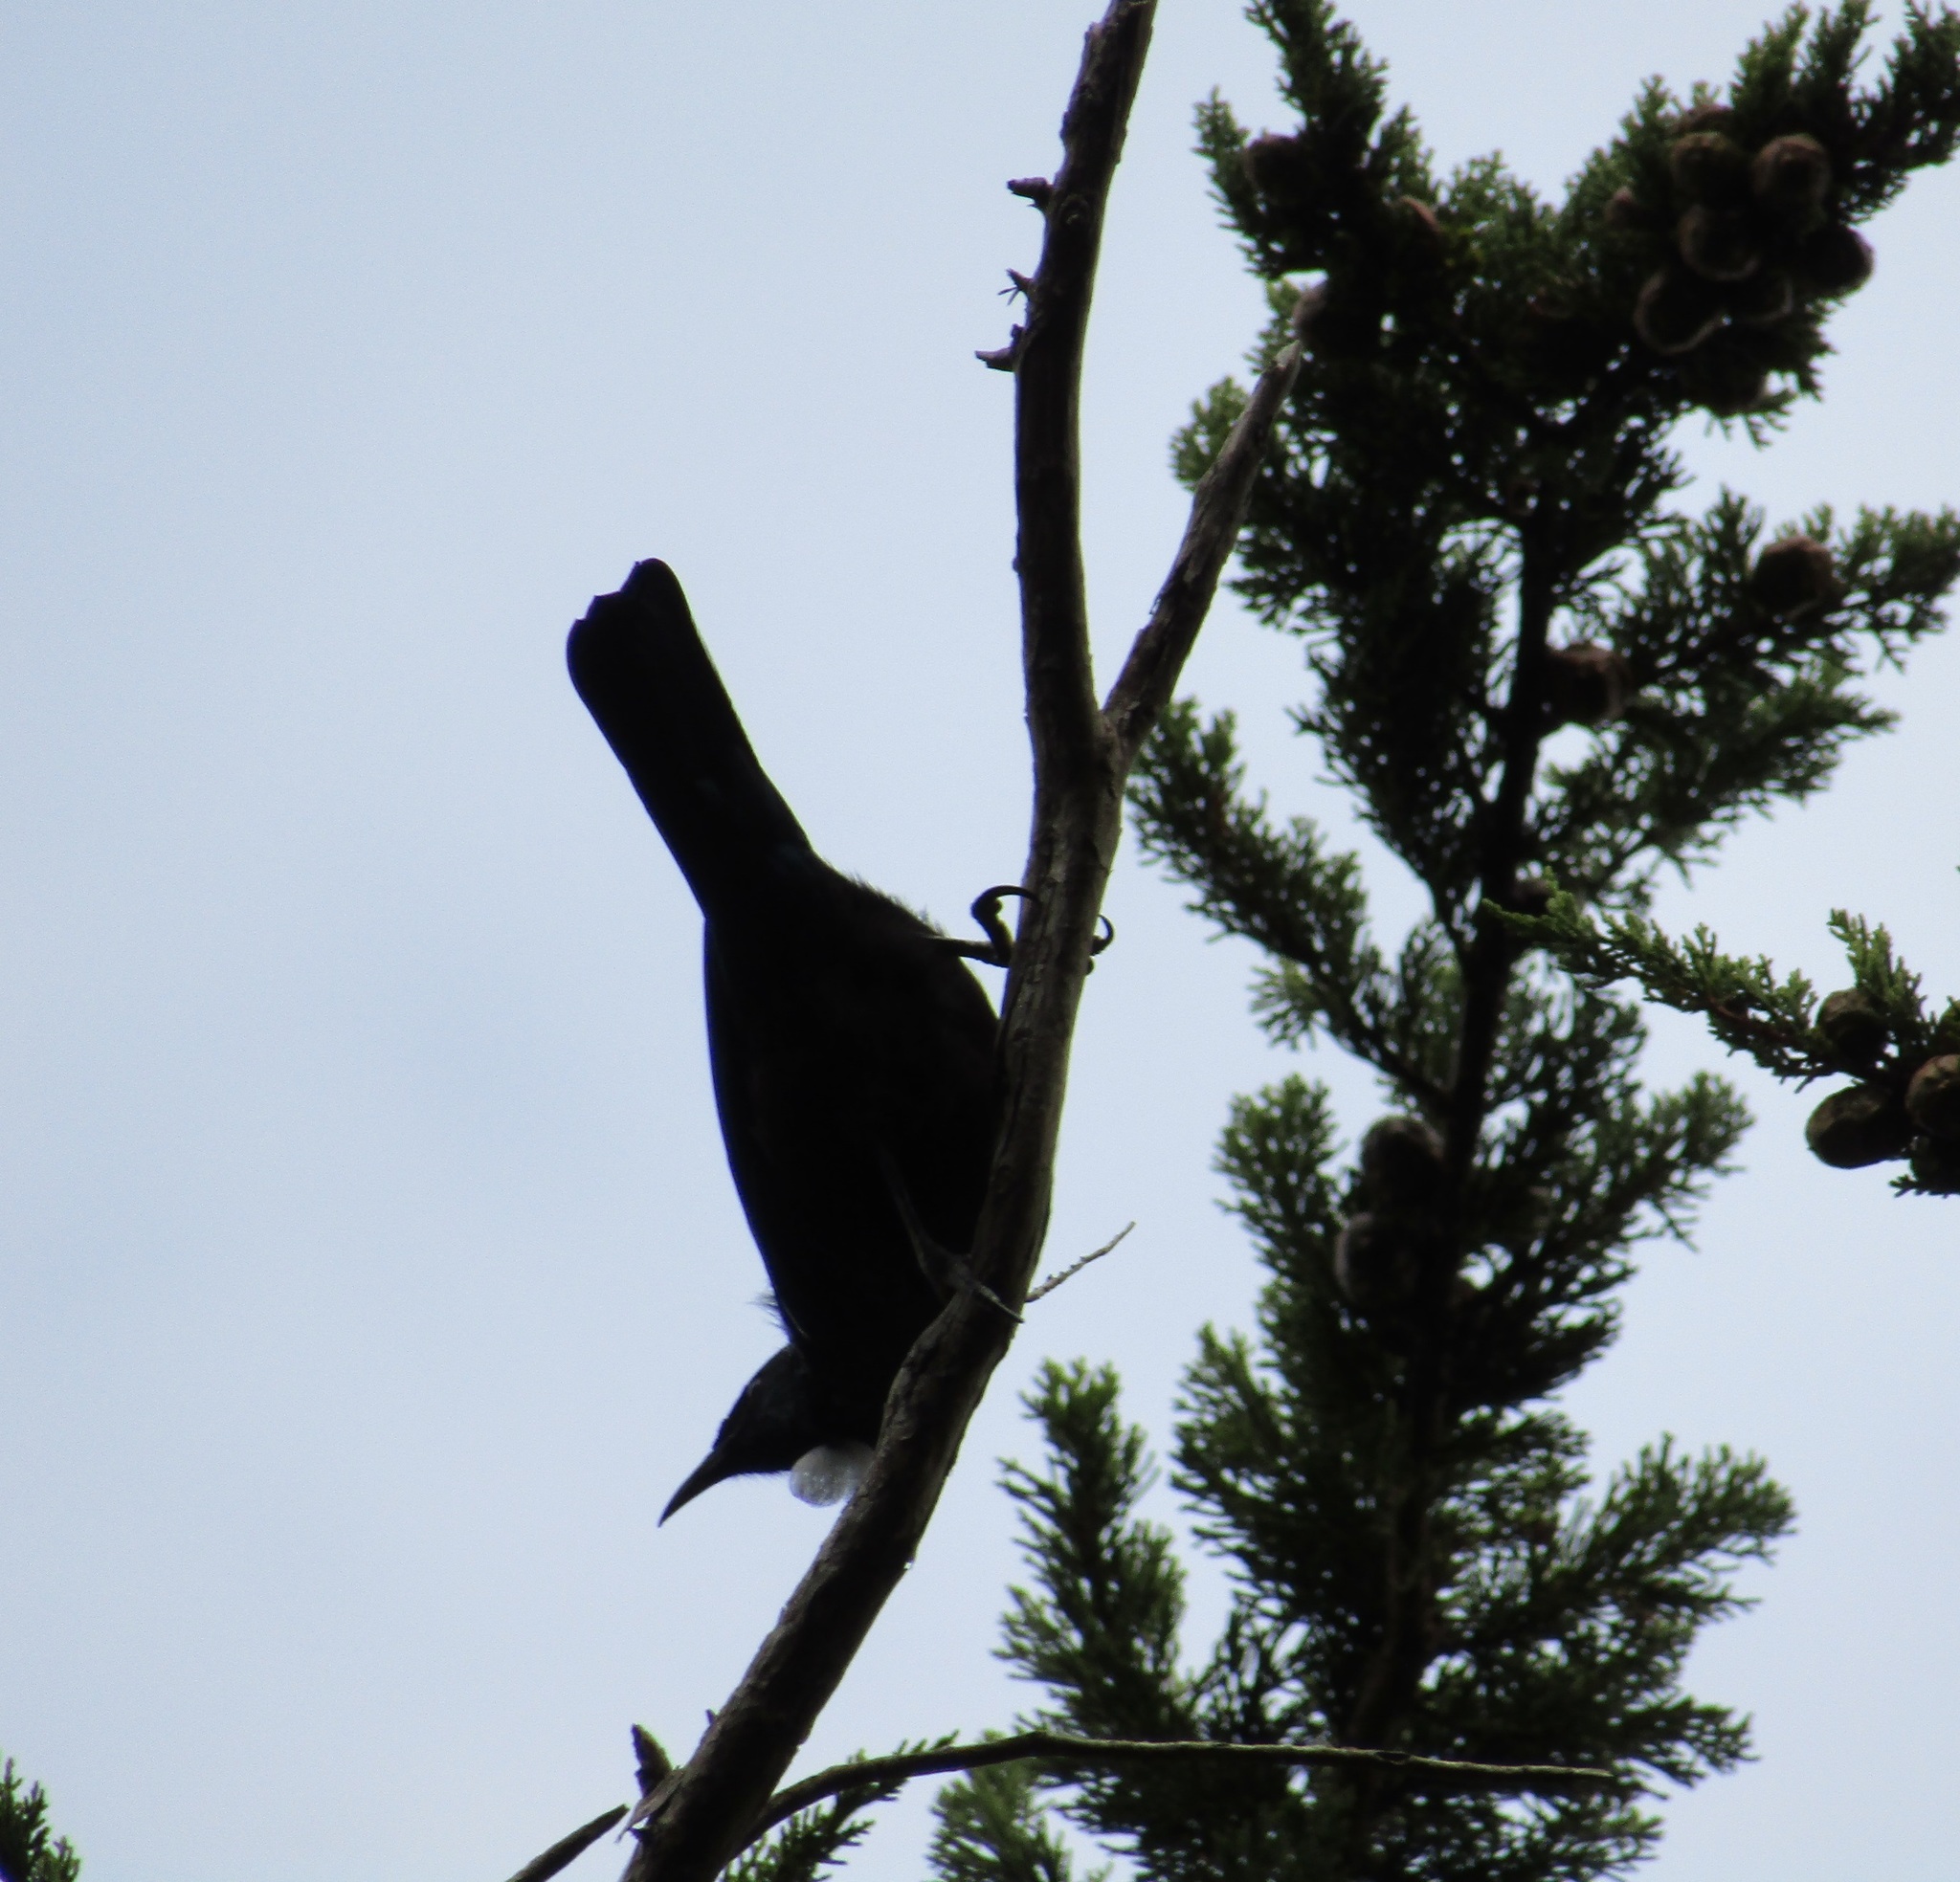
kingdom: Animalia
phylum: Chordata
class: Aves
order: Passeriformes
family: Meliphagidae
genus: Prosthemadera
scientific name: Prosthemadera novaeseelandiae
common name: Tui
